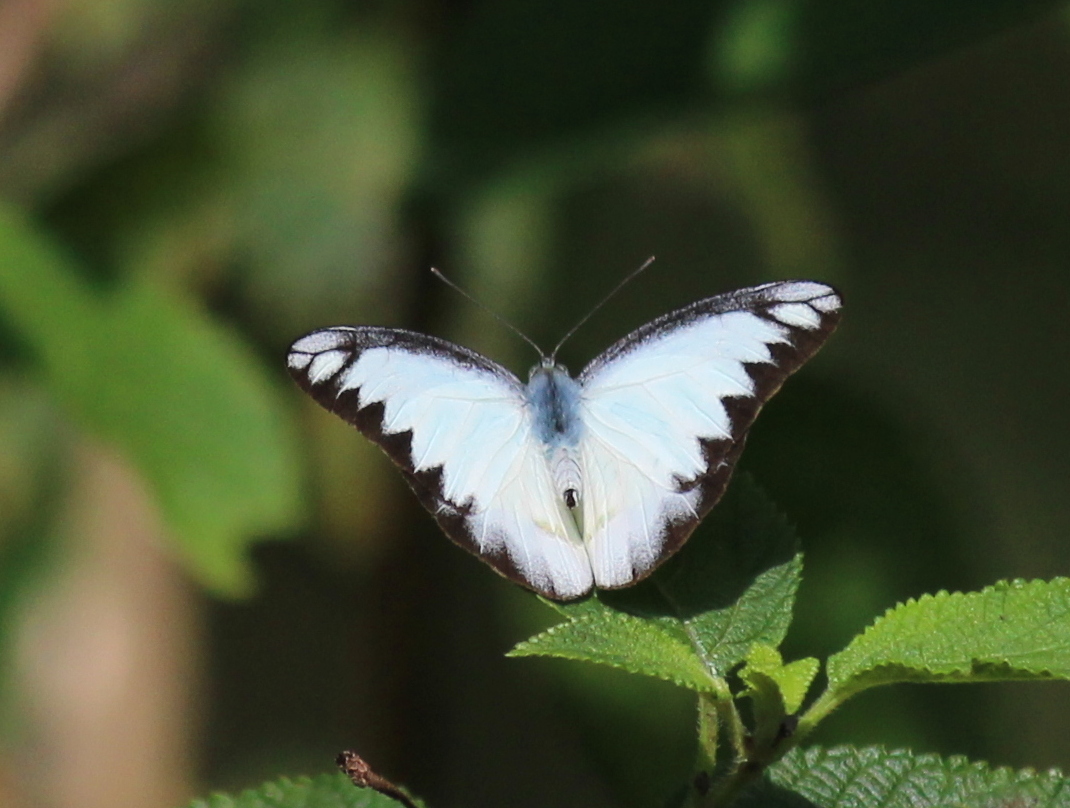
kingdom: Animalia
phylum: Arthropoda
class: Insecta
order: Lepidoptera
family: Pieridae
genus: Appias
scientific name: Appias lyncida
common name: Chocolate albatross
